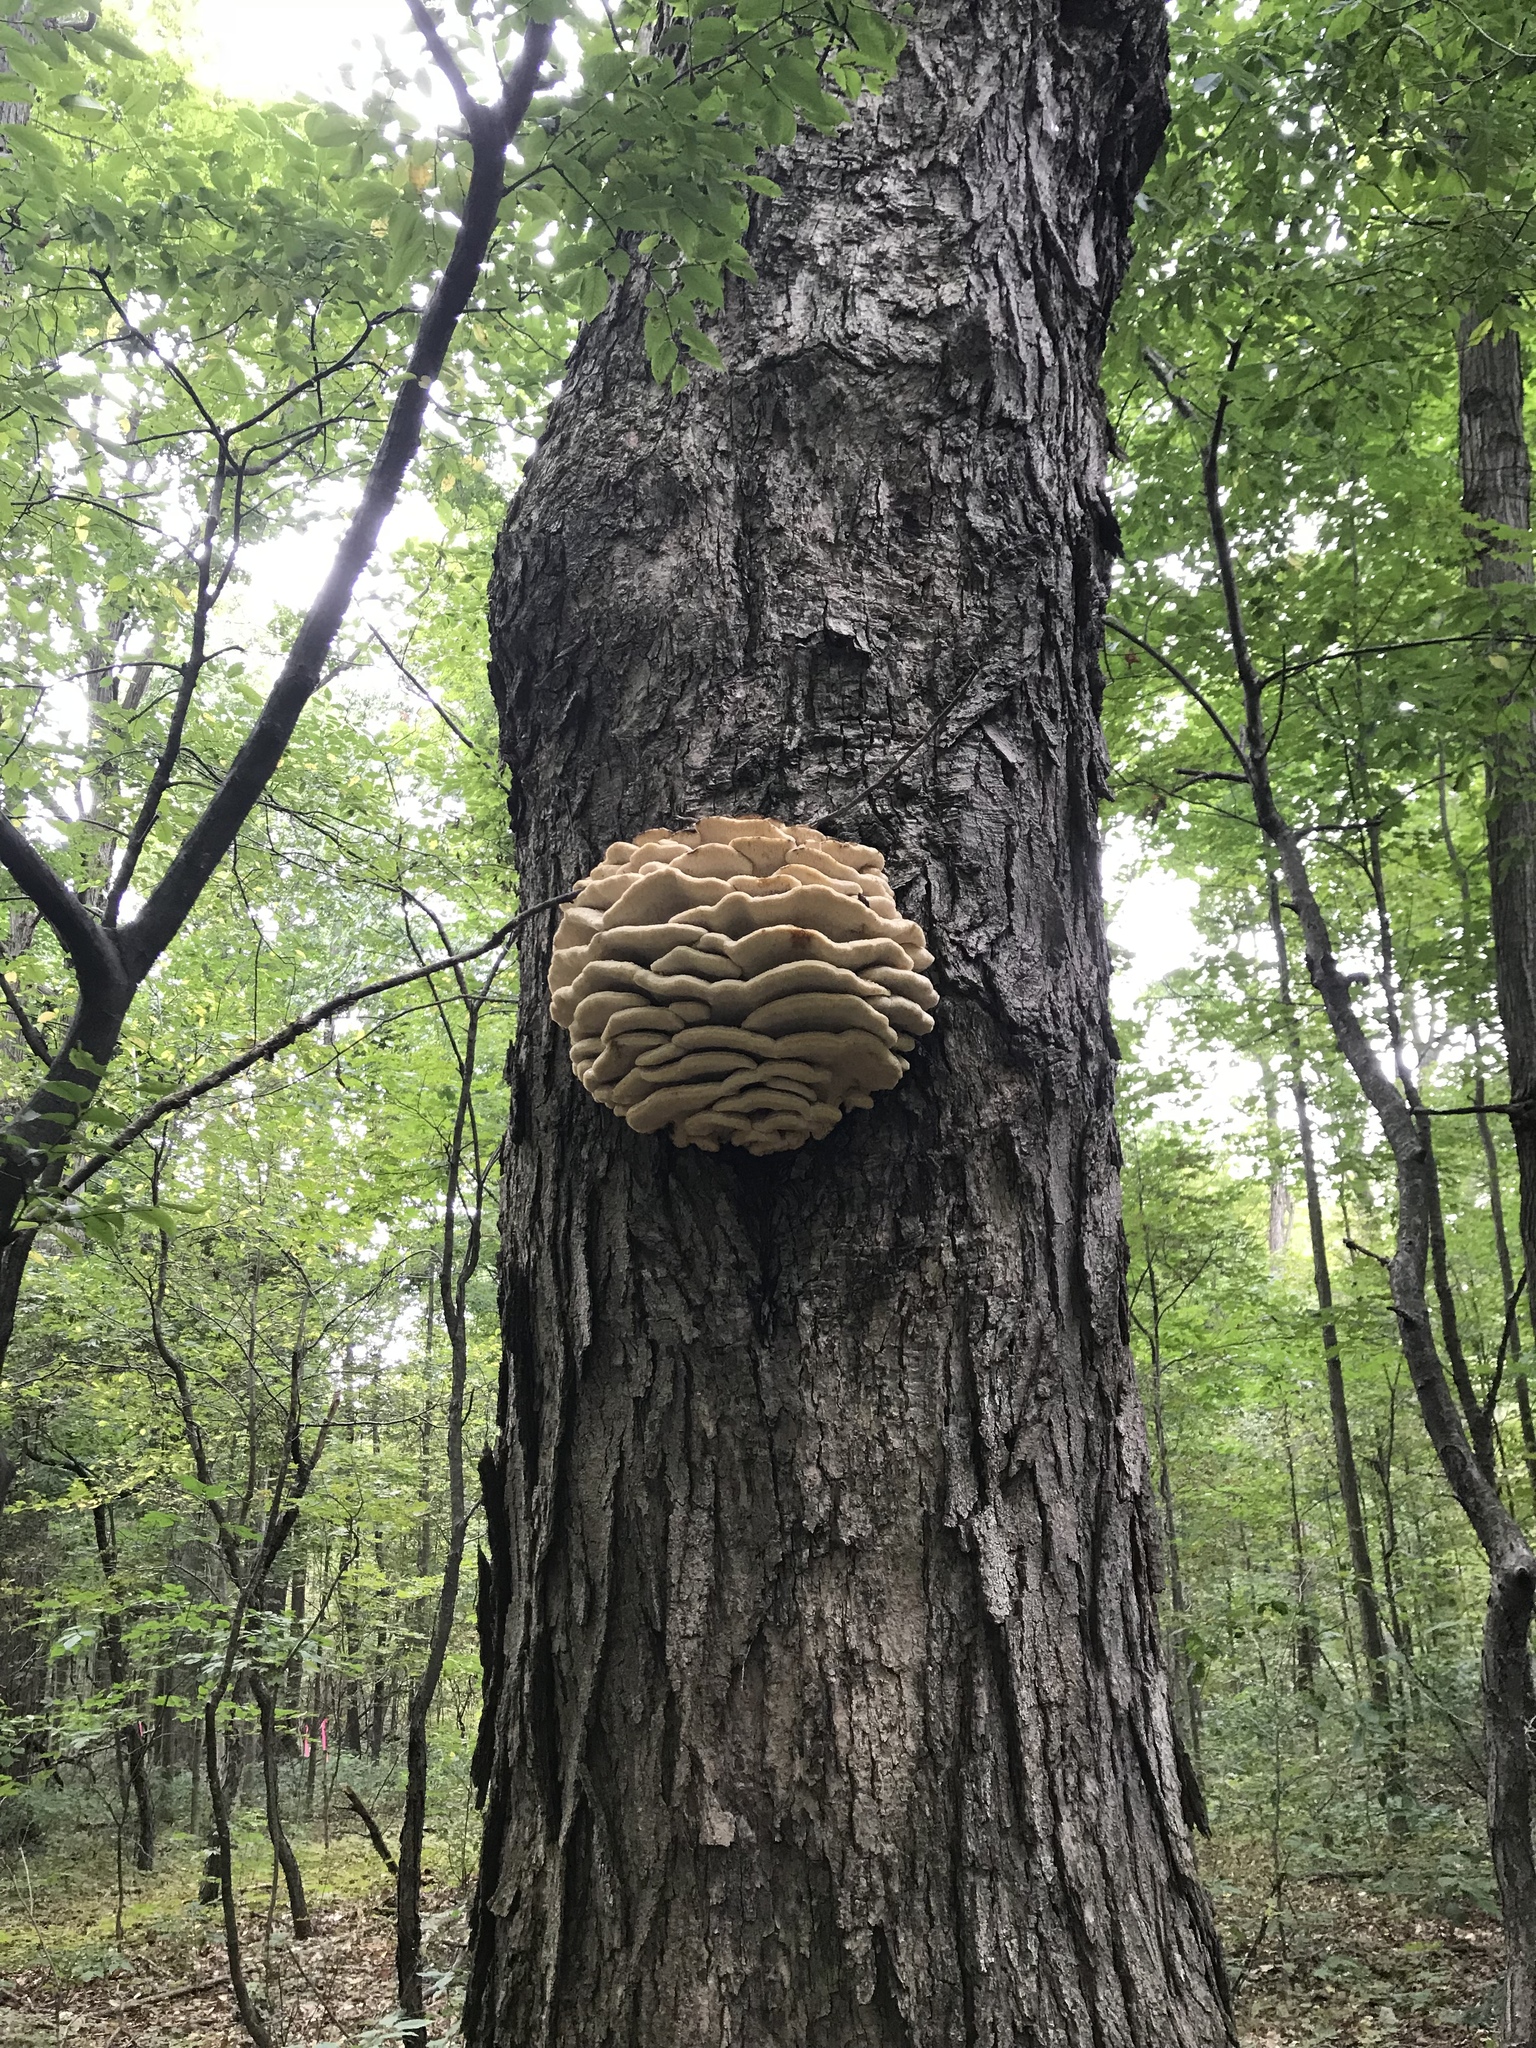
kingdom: Fungi
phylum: Basidiomycota
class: Agaricomycetes
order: Polyporales
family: Meruliaceae
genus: Climacodon
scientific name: Climacodon septentrionalis
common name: Northern tooth
